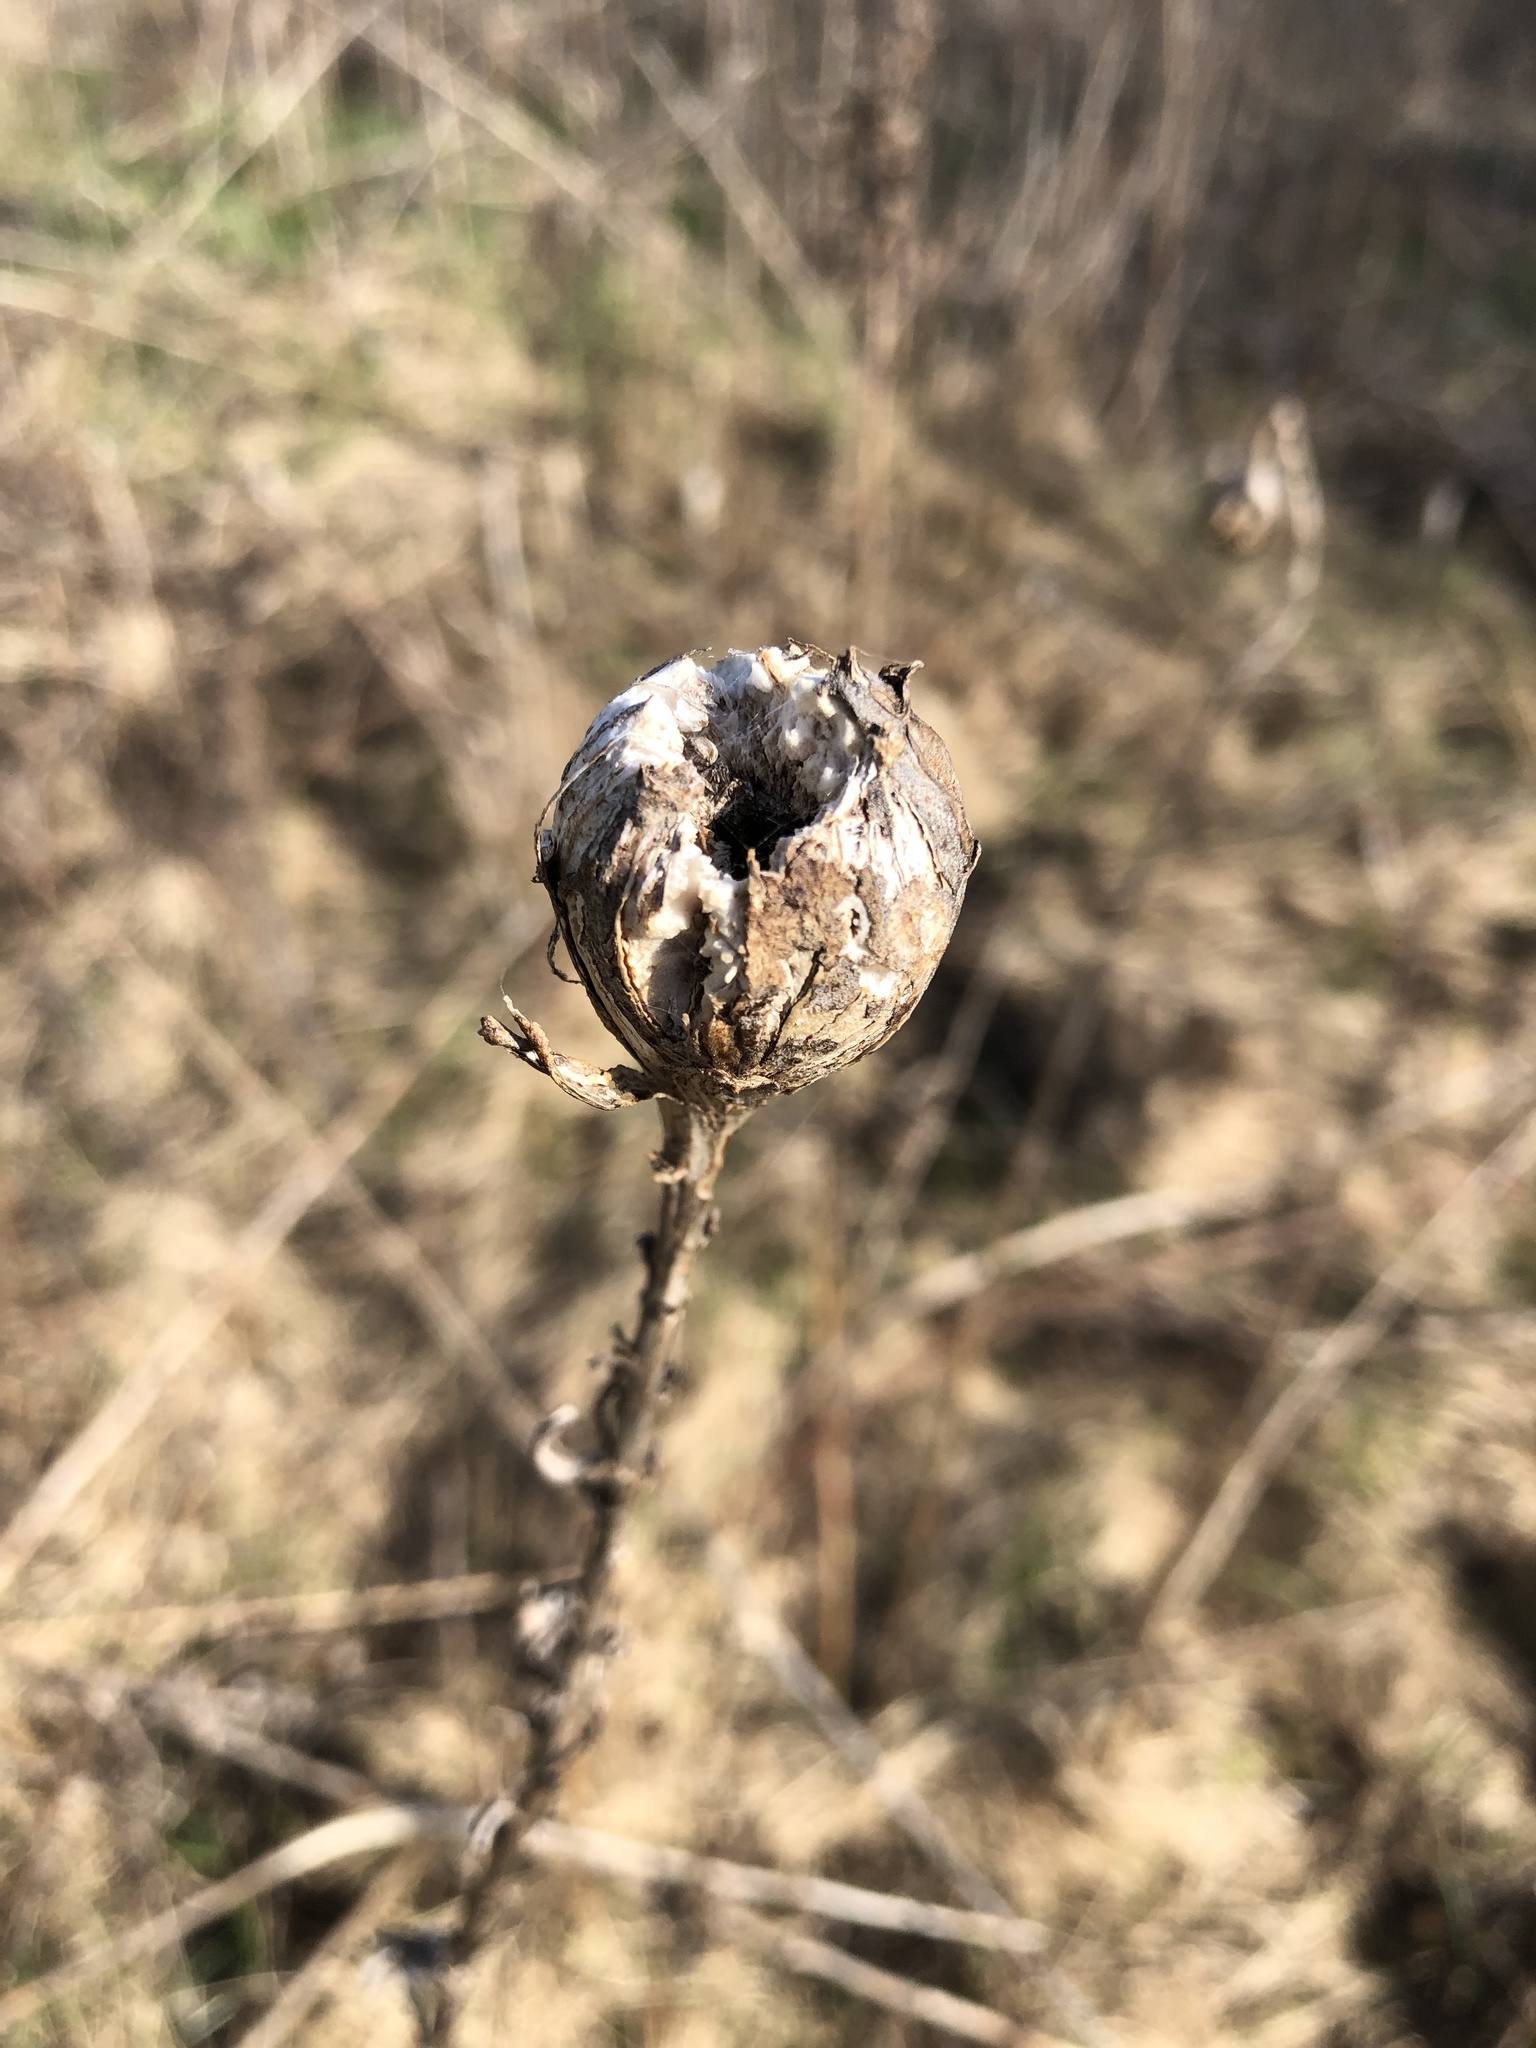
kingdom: Animalia
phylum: Arthropoda
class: Insecta
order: Diptera
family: Tephritidae
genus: Eurosta
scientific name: Eurosta solidaginis
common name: Goldenrod gall fly
